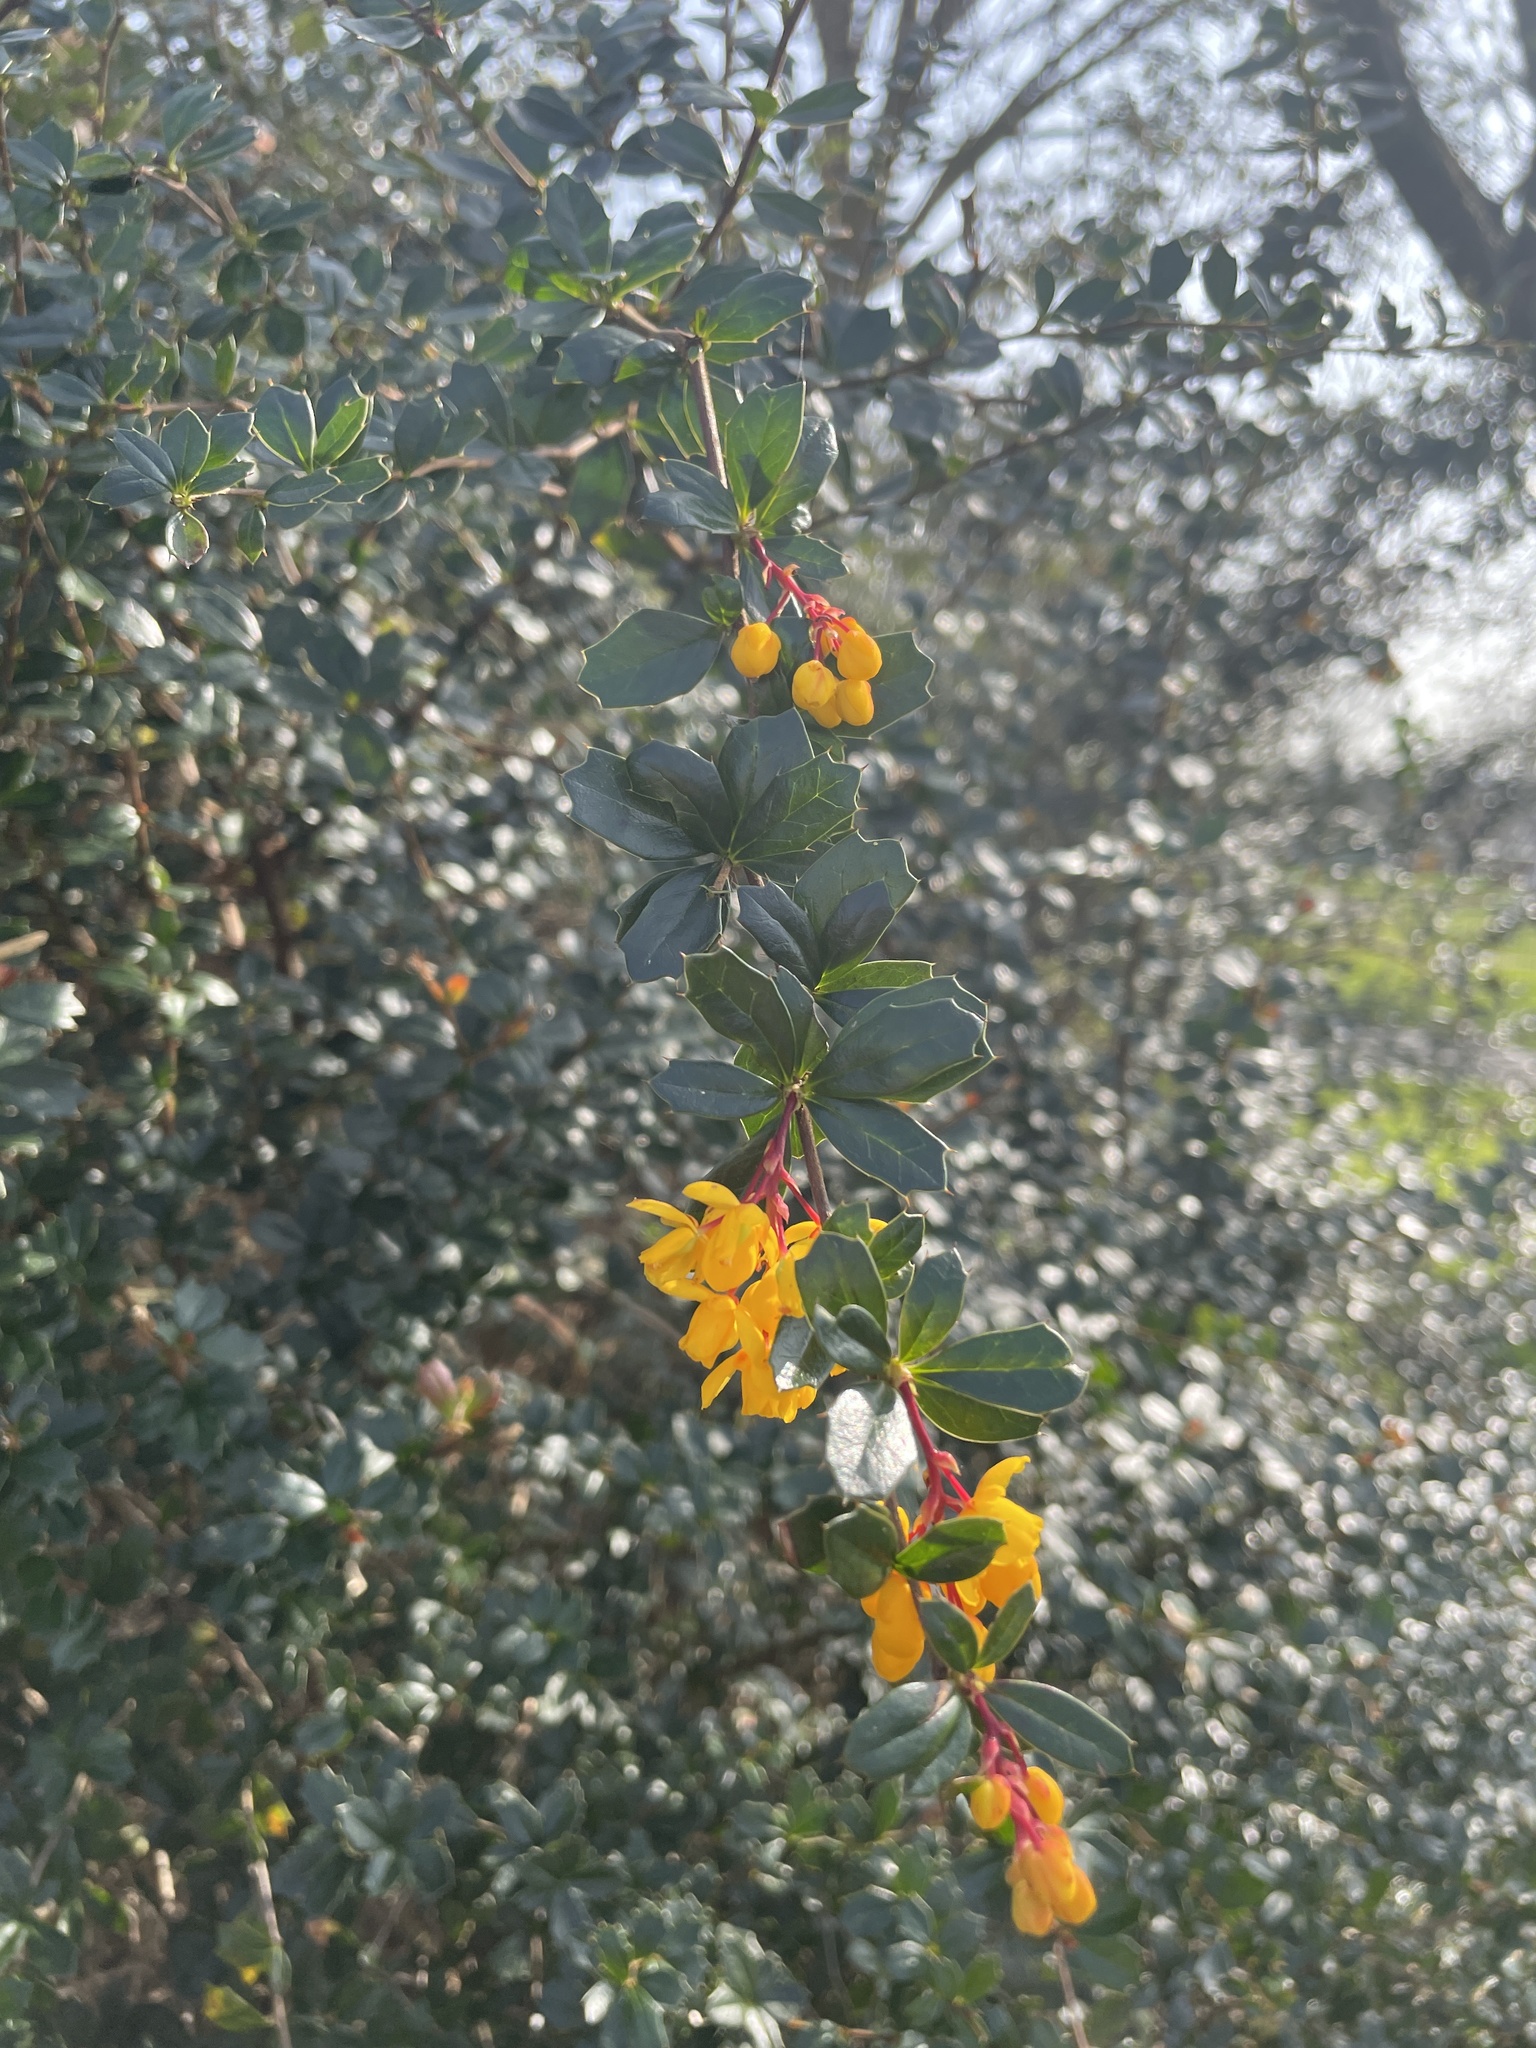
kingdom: Plantae
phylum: Tracheophyta
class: Magnoliopsida
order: Ranunculales
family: Berberidaceae
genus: Berberis
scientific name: Berberis darwinii
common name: Darwin's barberry
